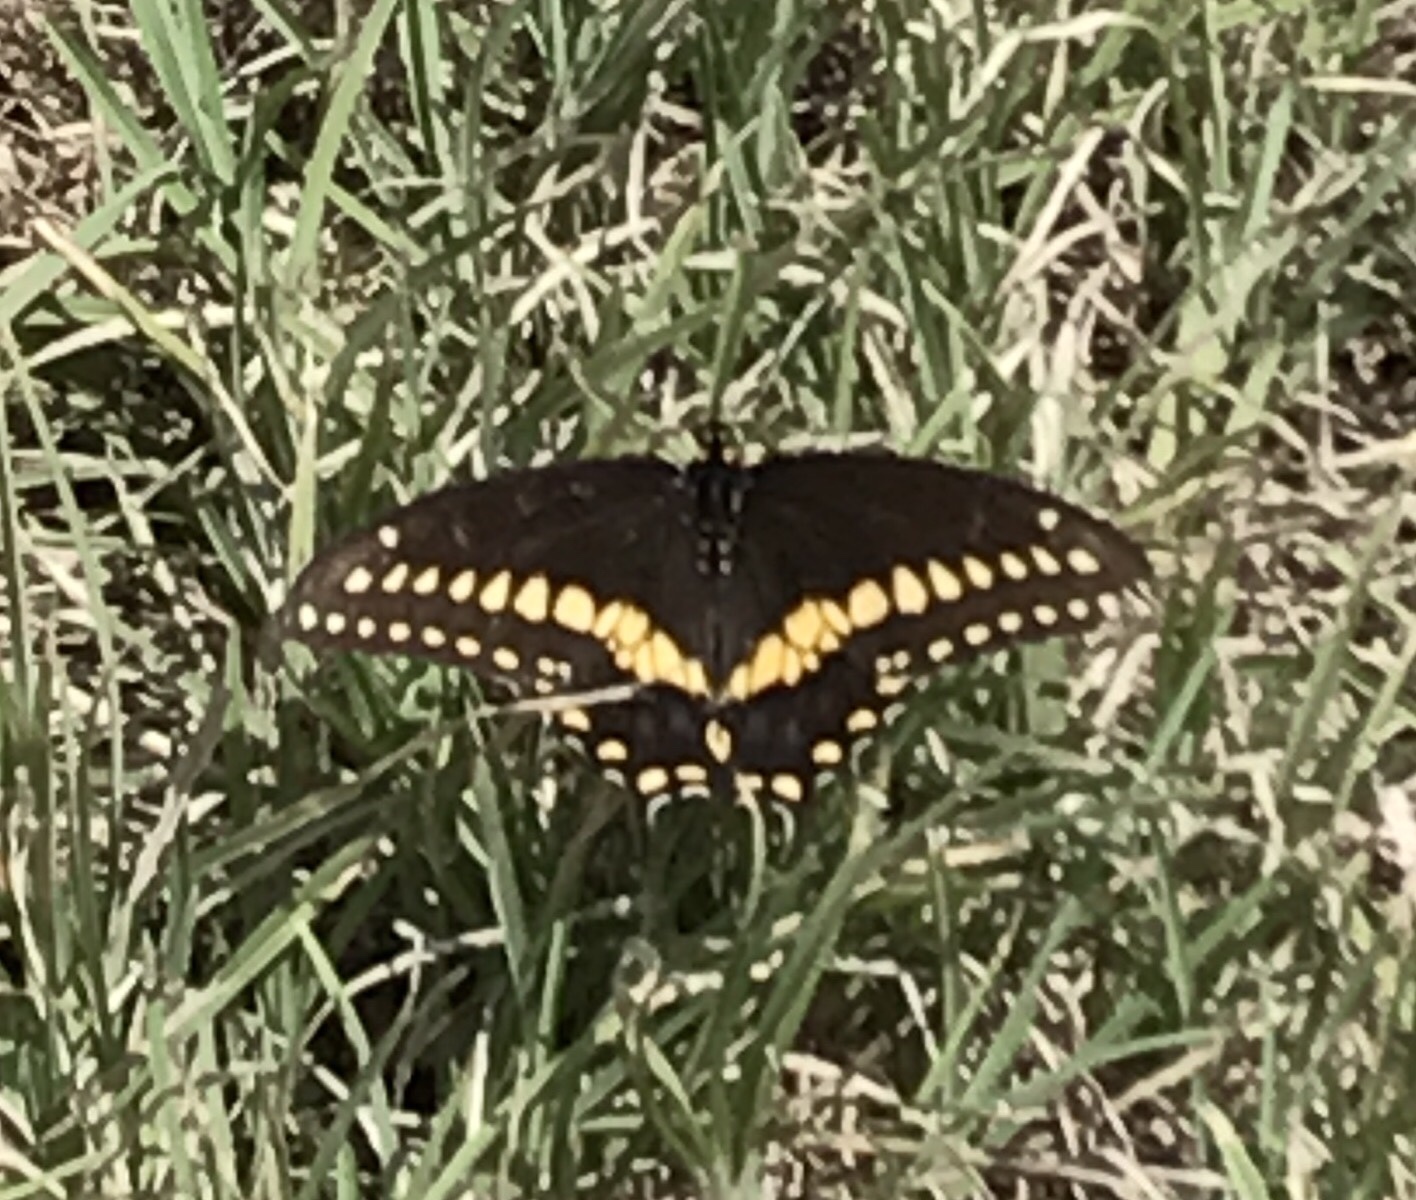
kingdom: Animalia
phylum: Arthropoda
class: Insecta
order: Lepidoptera
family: Papilionidae
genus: Papilio
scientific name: Papilio polyxenes
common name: Black swallowtail
